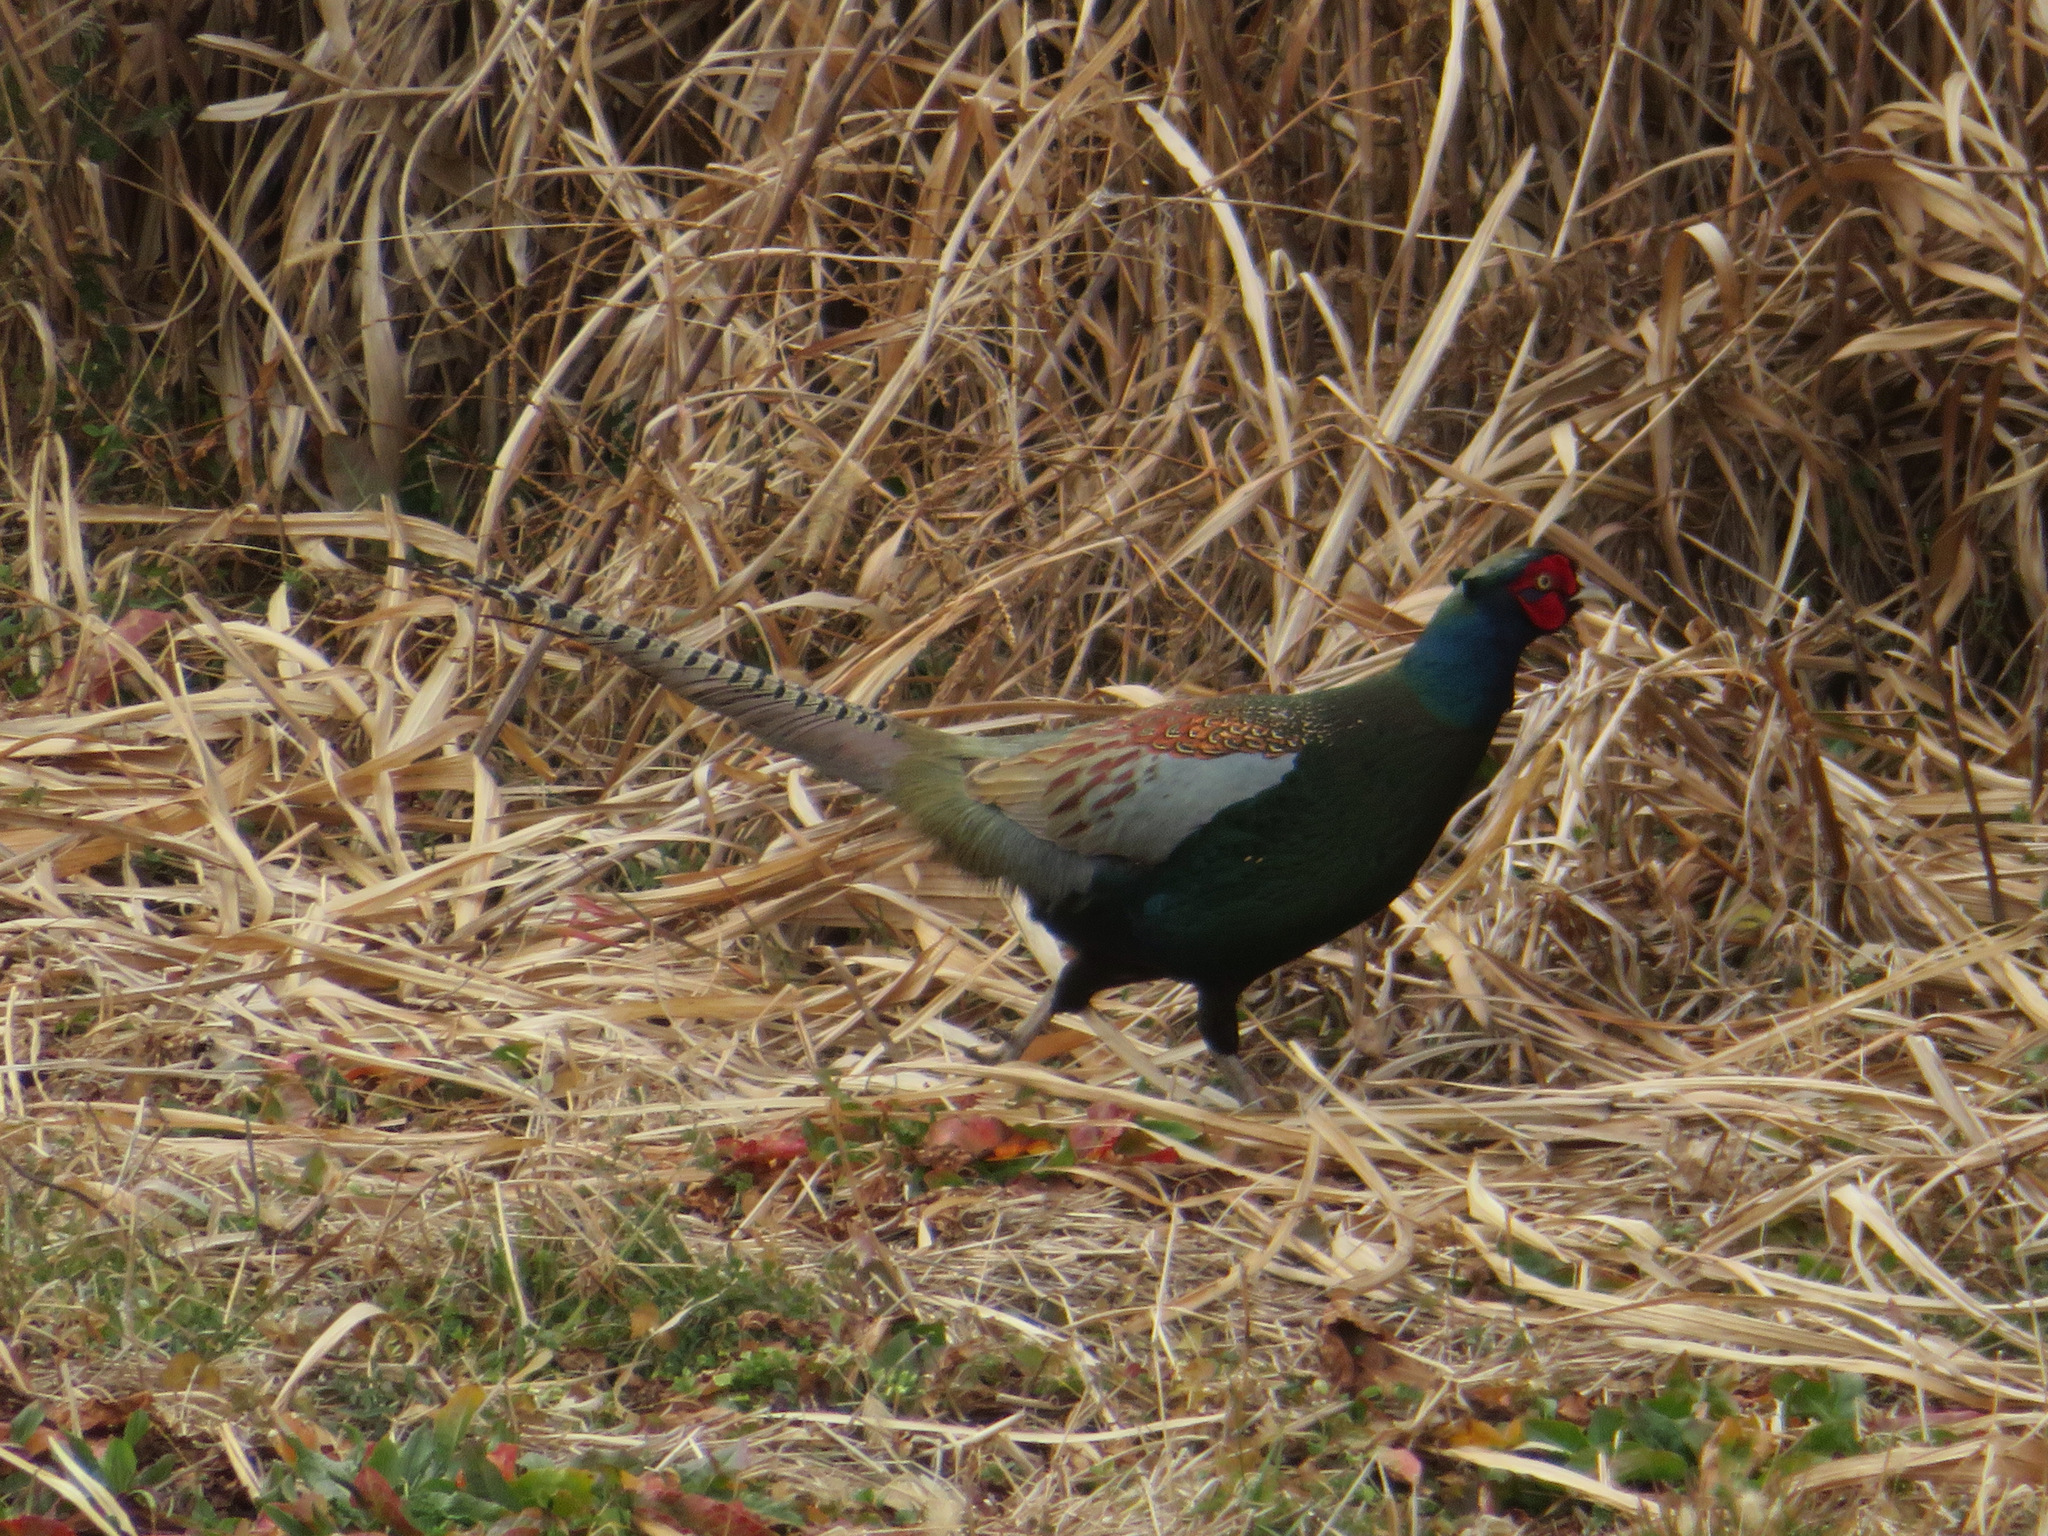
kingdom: Animalia
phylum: Chordata
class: Aves
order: Galliformes
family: Phasianidae
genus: Phasianus
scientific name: Phasianus versicolor
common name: Green pheasant
